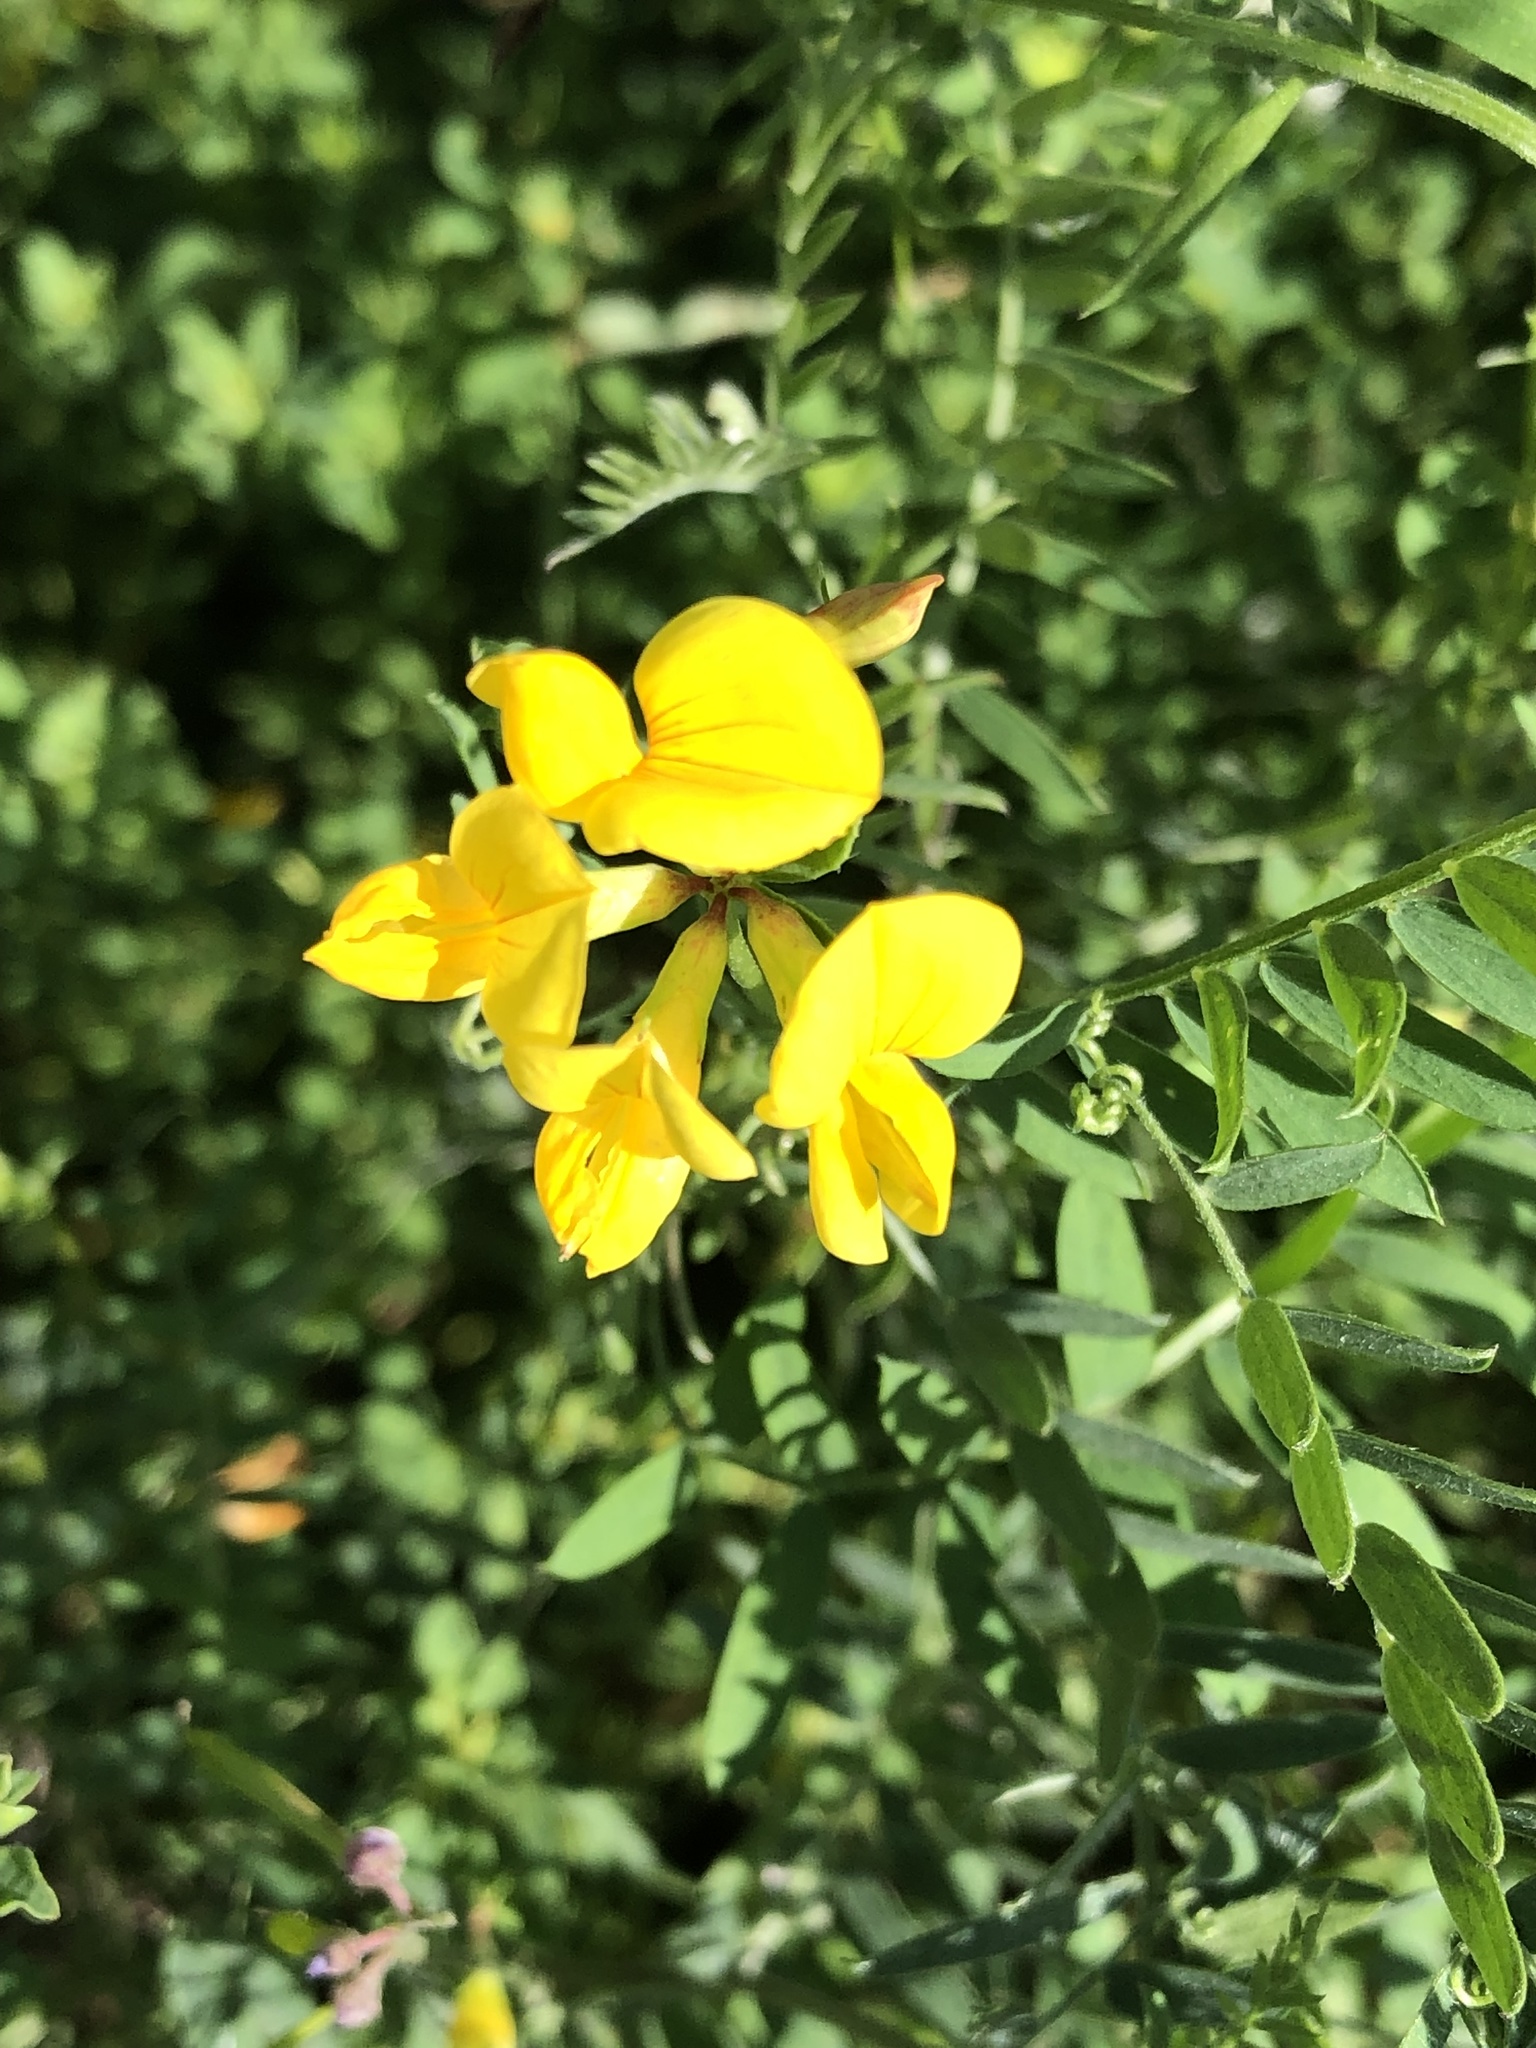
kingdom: Plantae
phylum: Tracheophyta
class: Magnoliopsida
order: Fabales
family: Fabaceae
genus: Lotus
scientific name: Lotus corniculatus
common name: Common bird's-foot-trefoil
